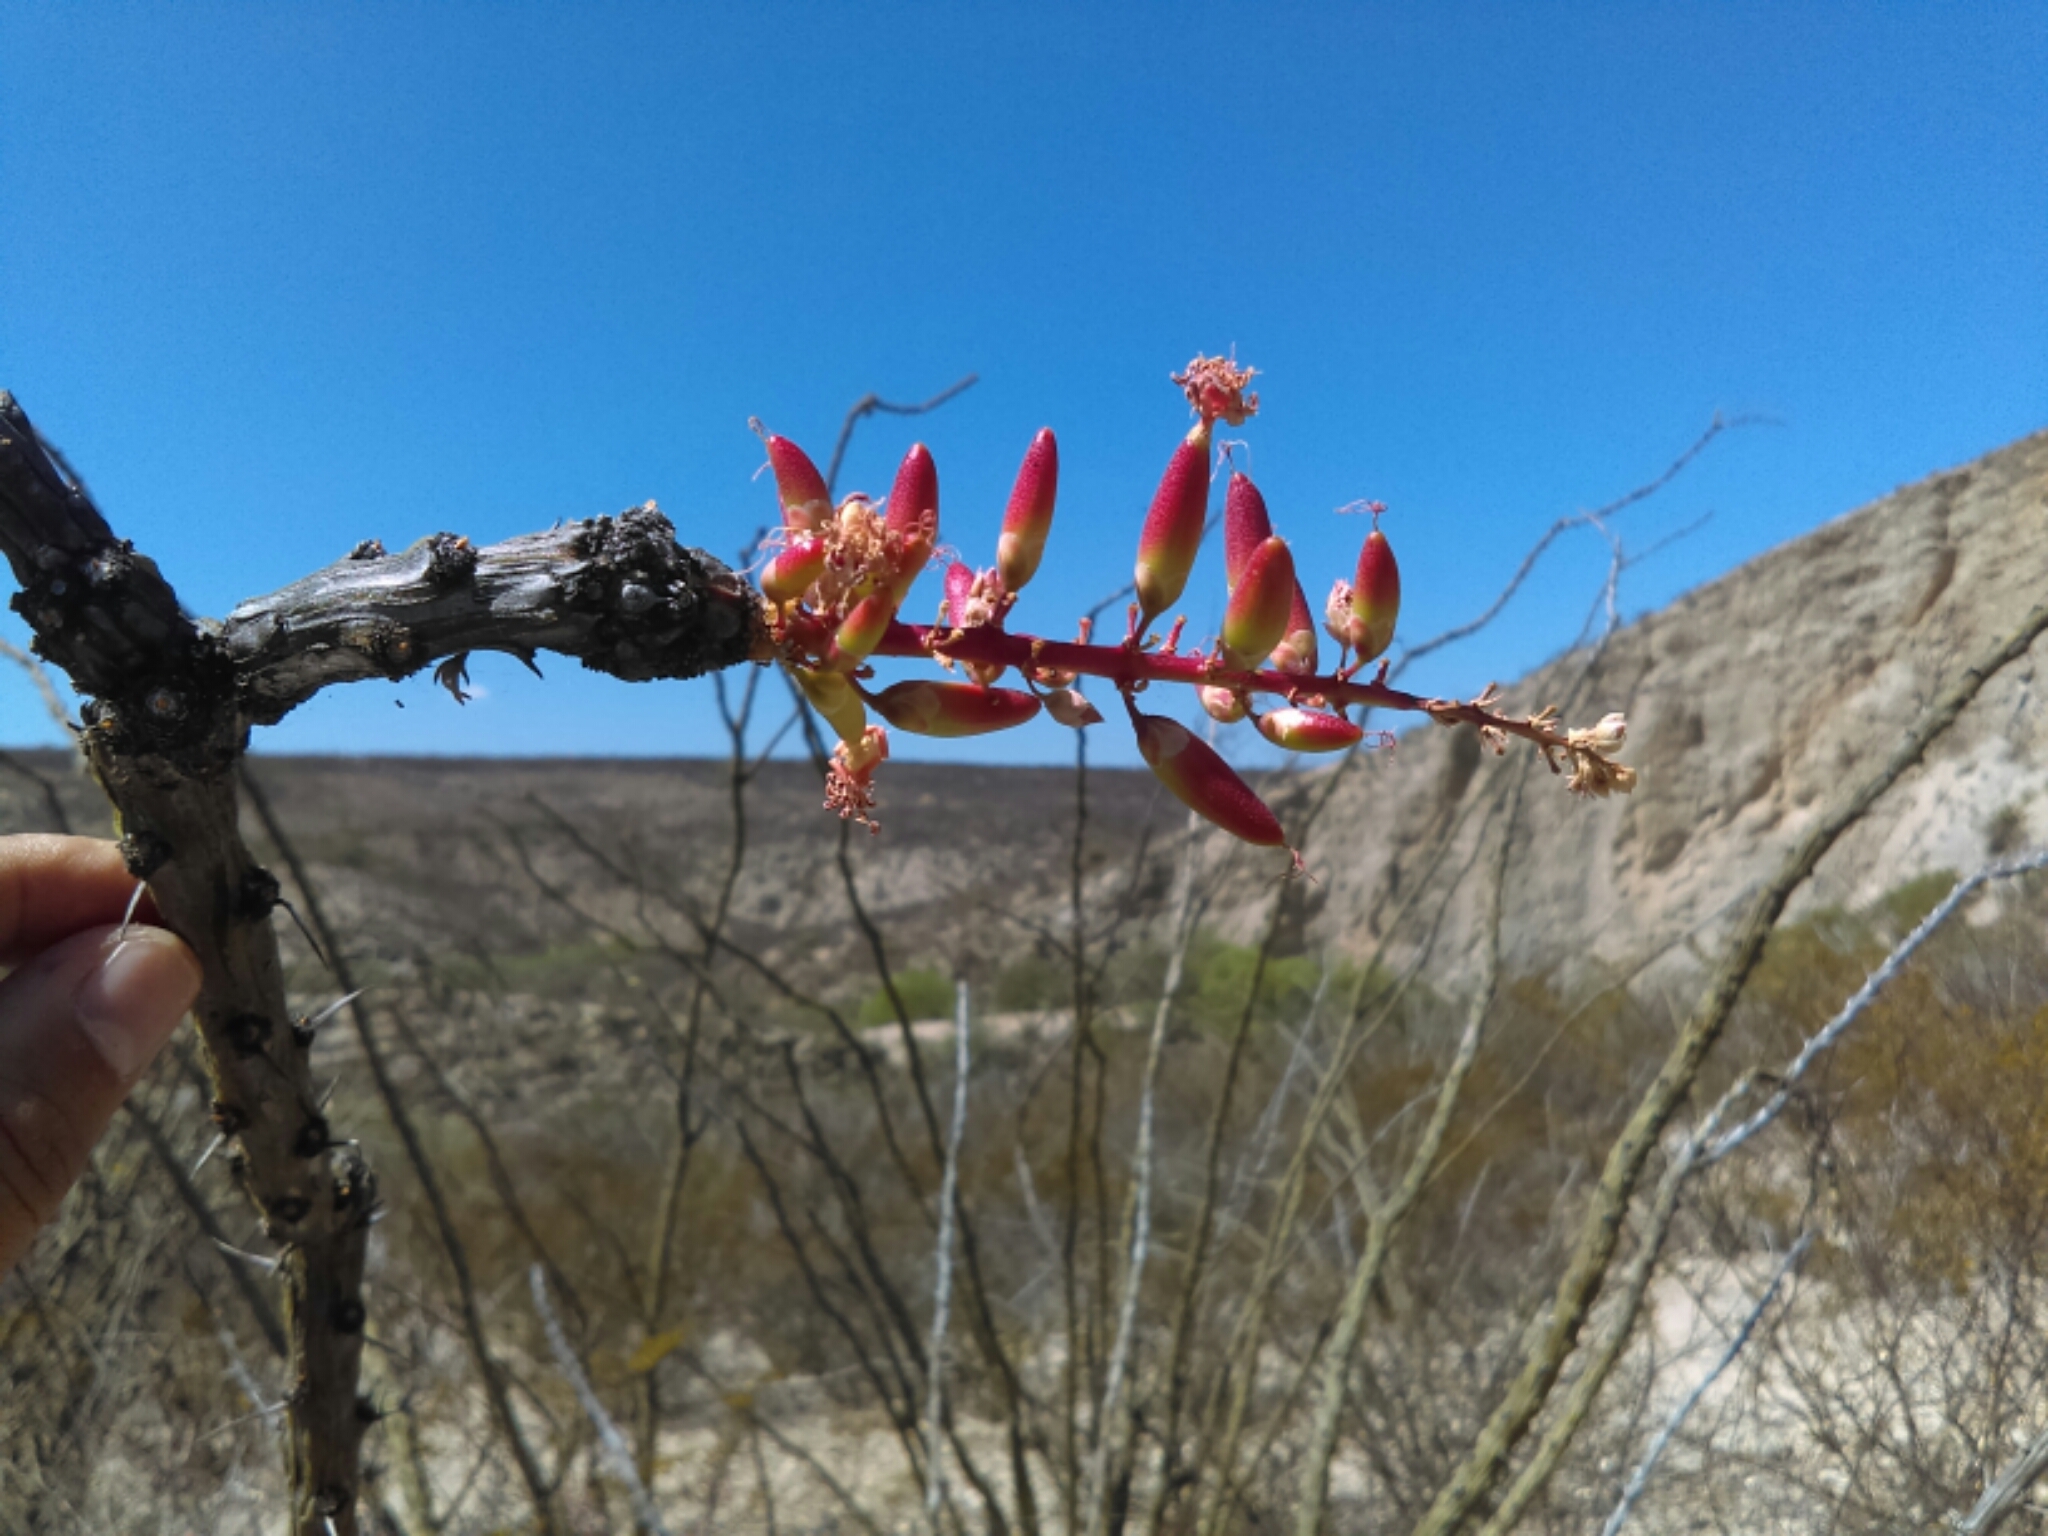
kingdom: Plantae
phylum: Tracheophyta
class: Magnoliopsida
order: Ericales
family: Fouquieriaceae
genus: Fouquieria
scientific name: Fouquieria splendens
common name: Vine-cactus
